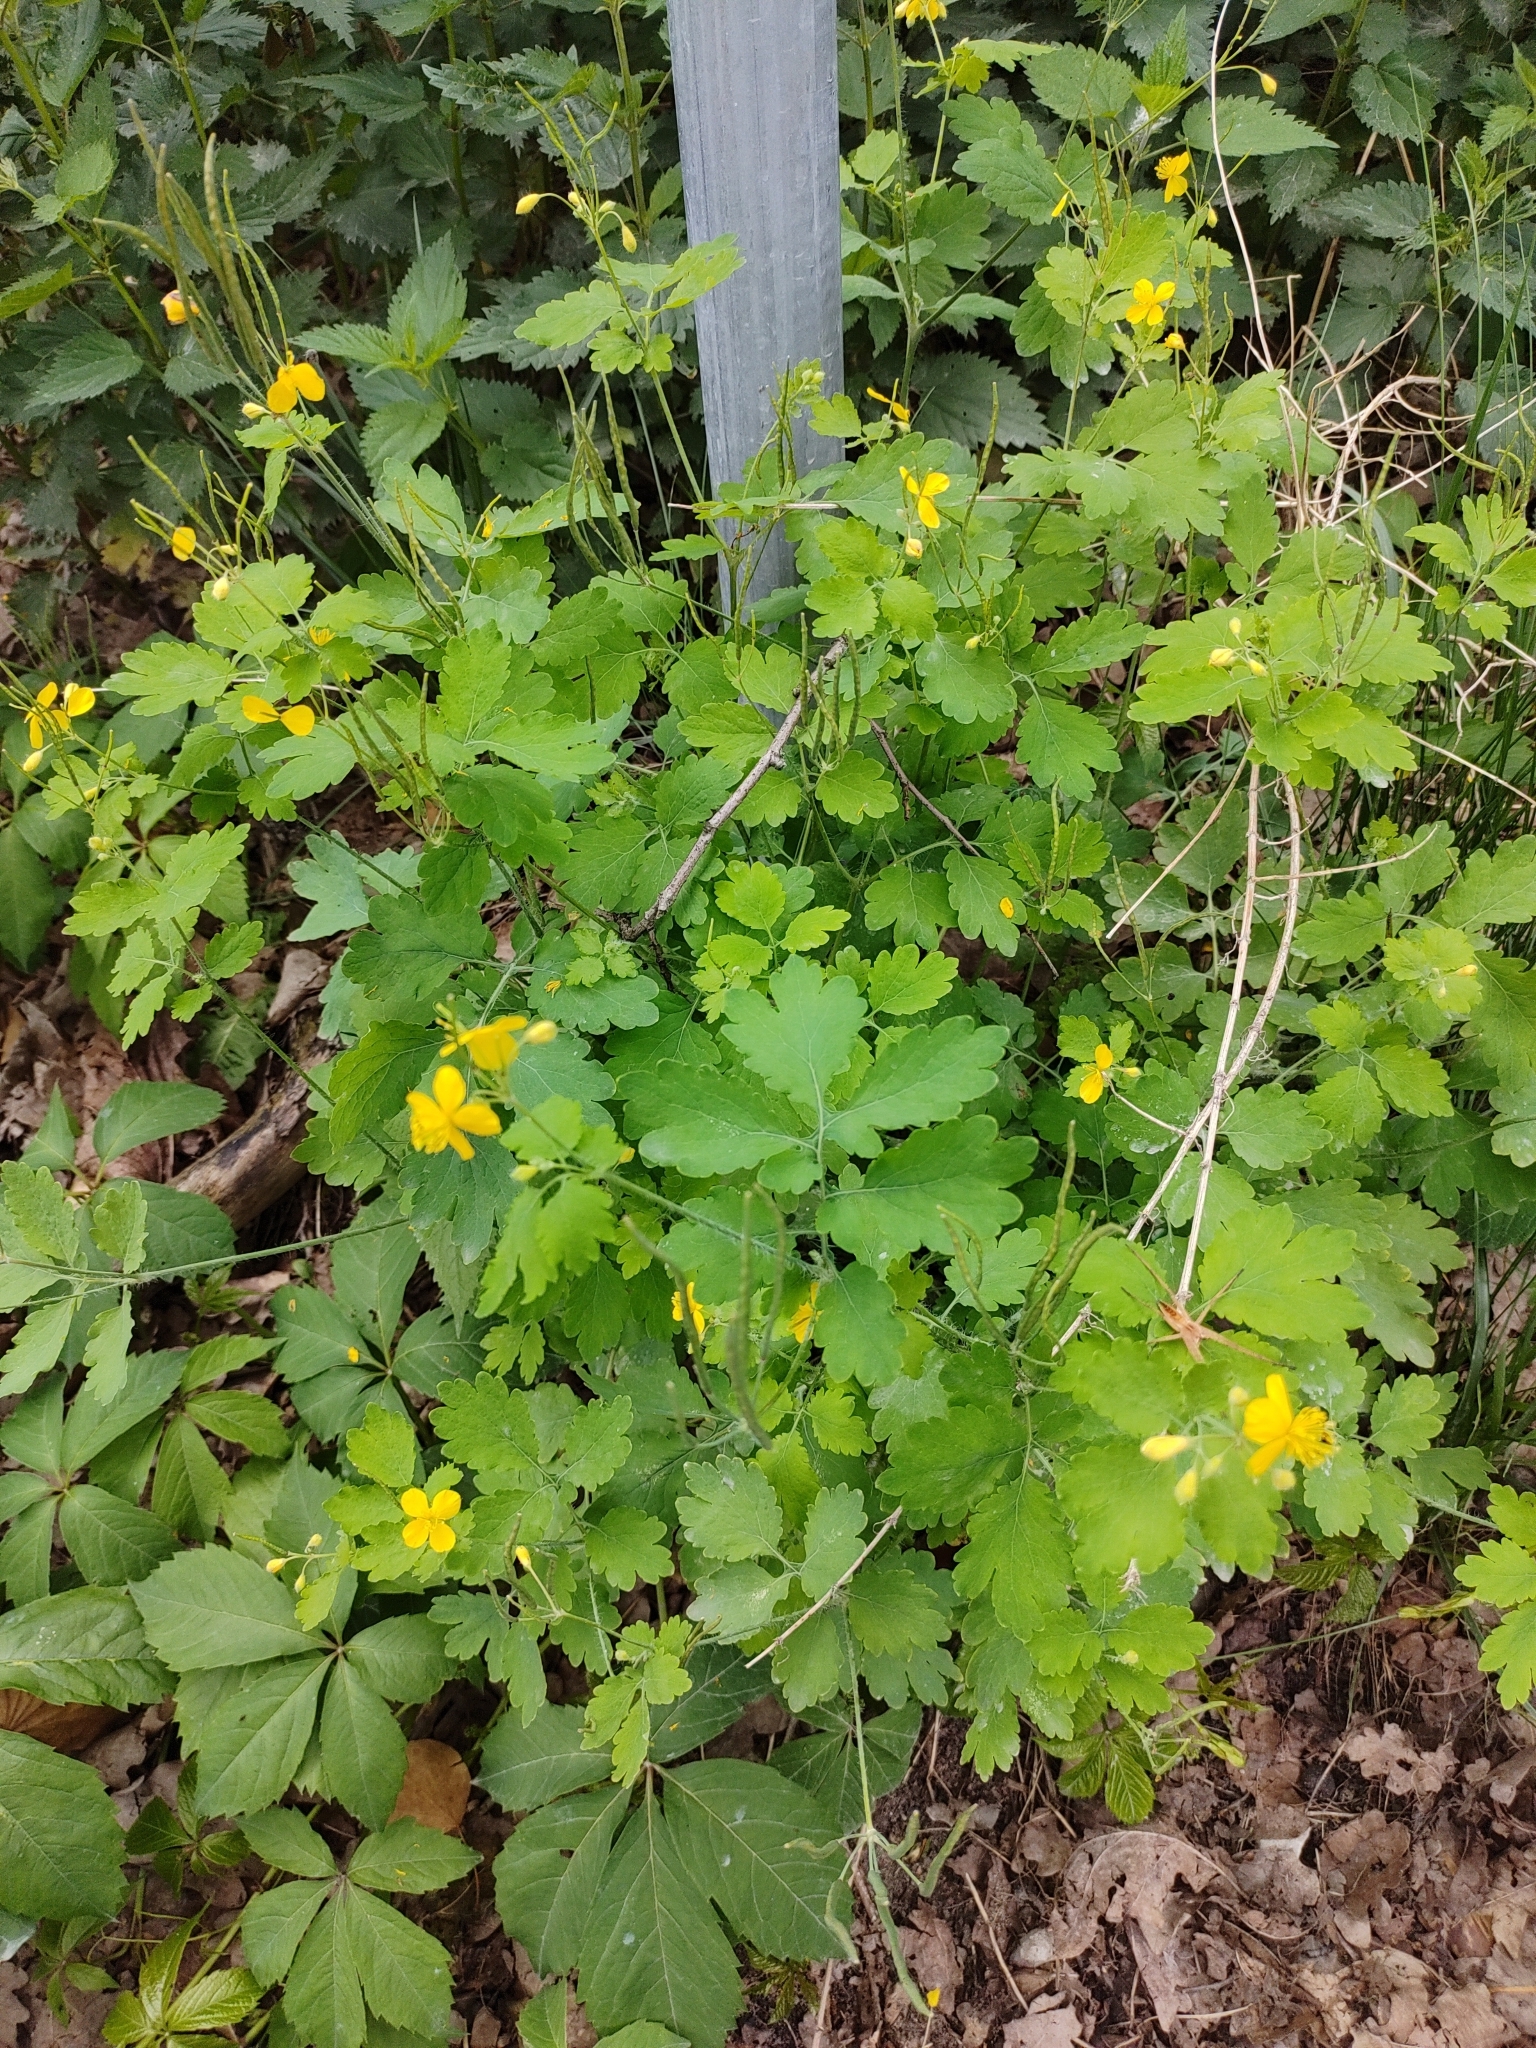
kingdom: Plantae
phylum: Tracheophyta
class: Magnoliopsida
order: Ranunculales
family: Papaveraceae
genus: Chelidonium
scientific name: Chelidonium majus
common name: Greater celandine
